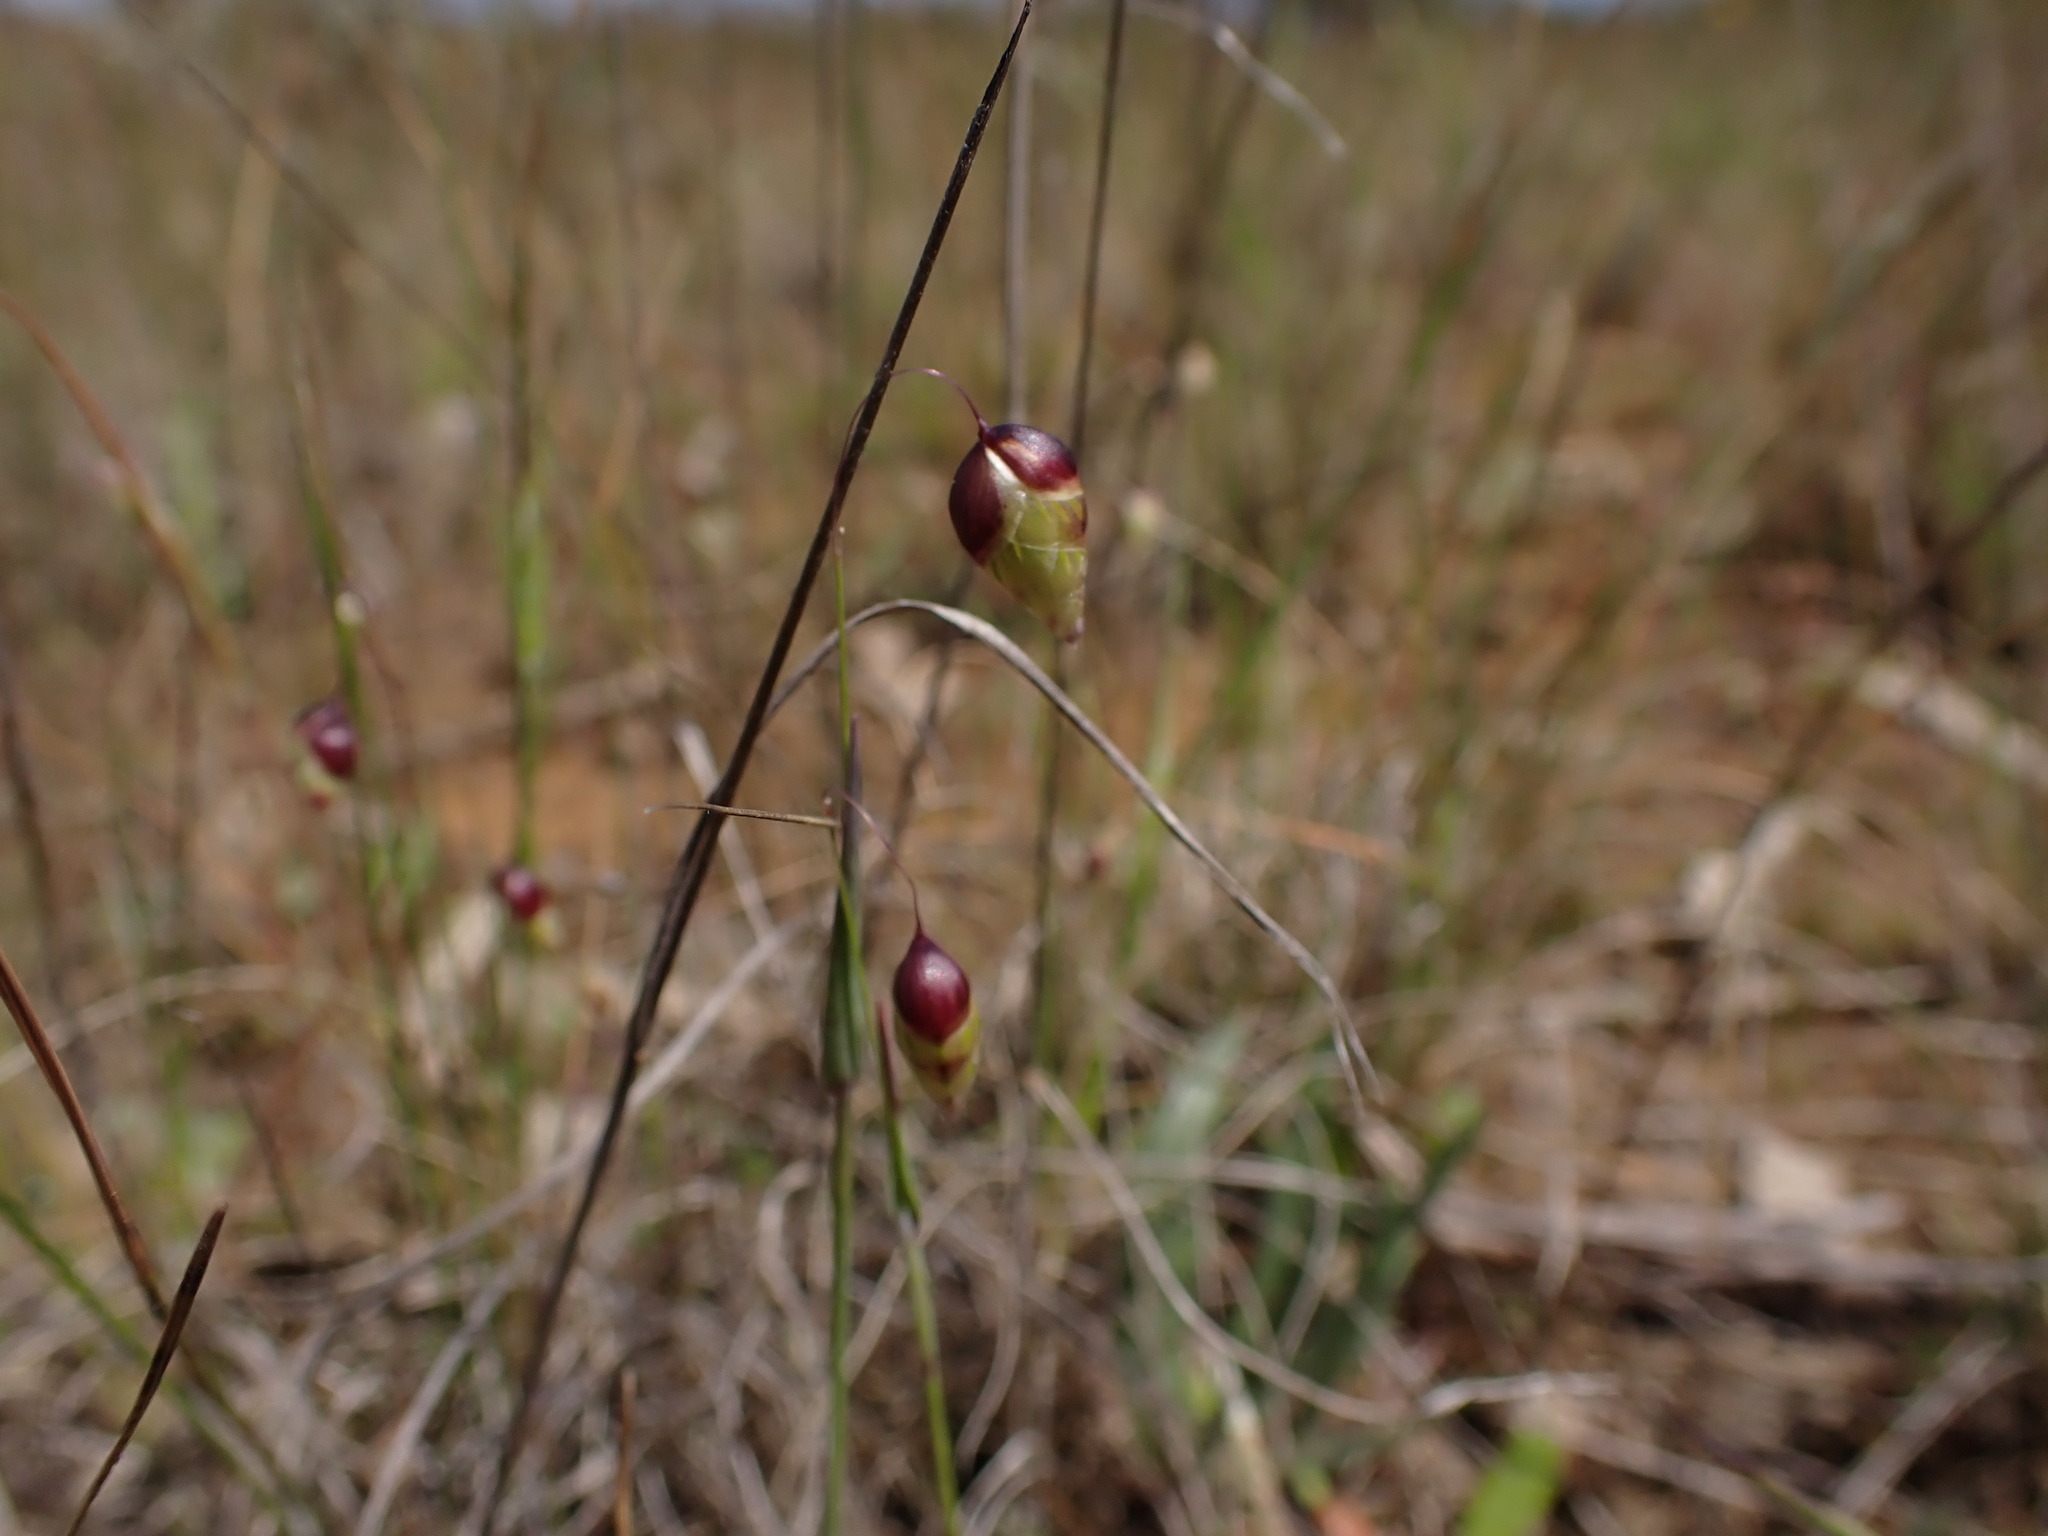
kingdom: Plantae
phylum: Tracheophyta
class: Liliopsida
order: Poales
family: Poaceae
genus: Briza
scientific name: Briza maxima
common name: Big quakinggrass
